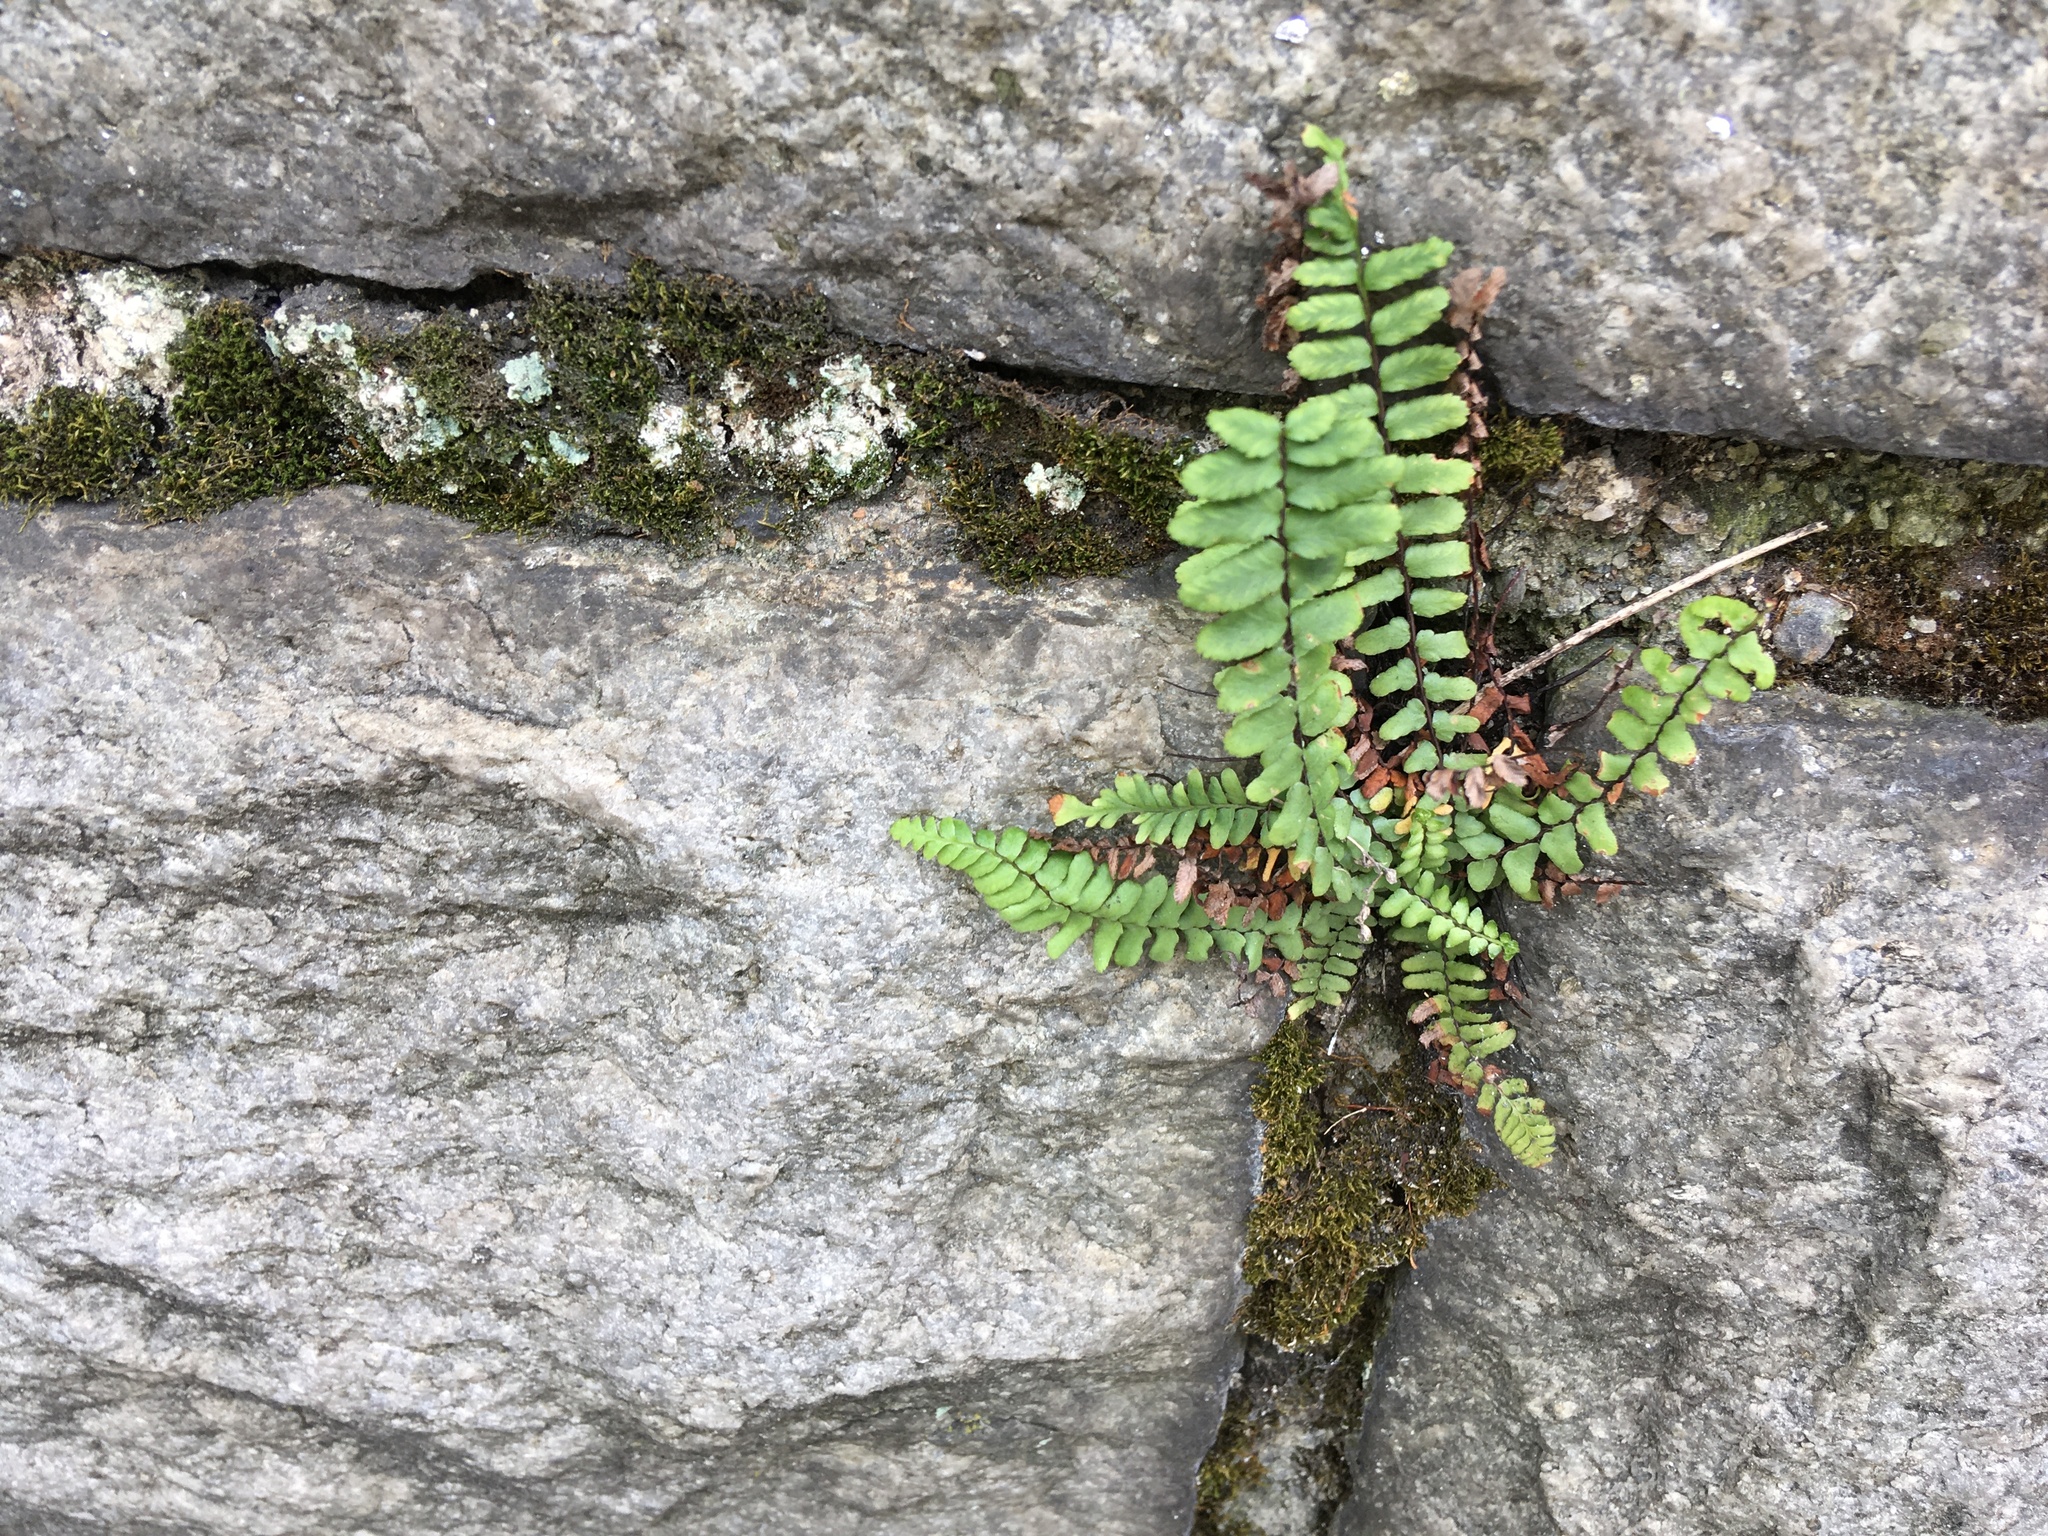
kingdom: Plantae
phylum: Tracheophyta
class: Polypodiopsida
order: Polypodiales
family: Aspleniaceae
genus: Asplenium
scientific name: Asplenium platyneuron
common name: Ebony spleenwort
